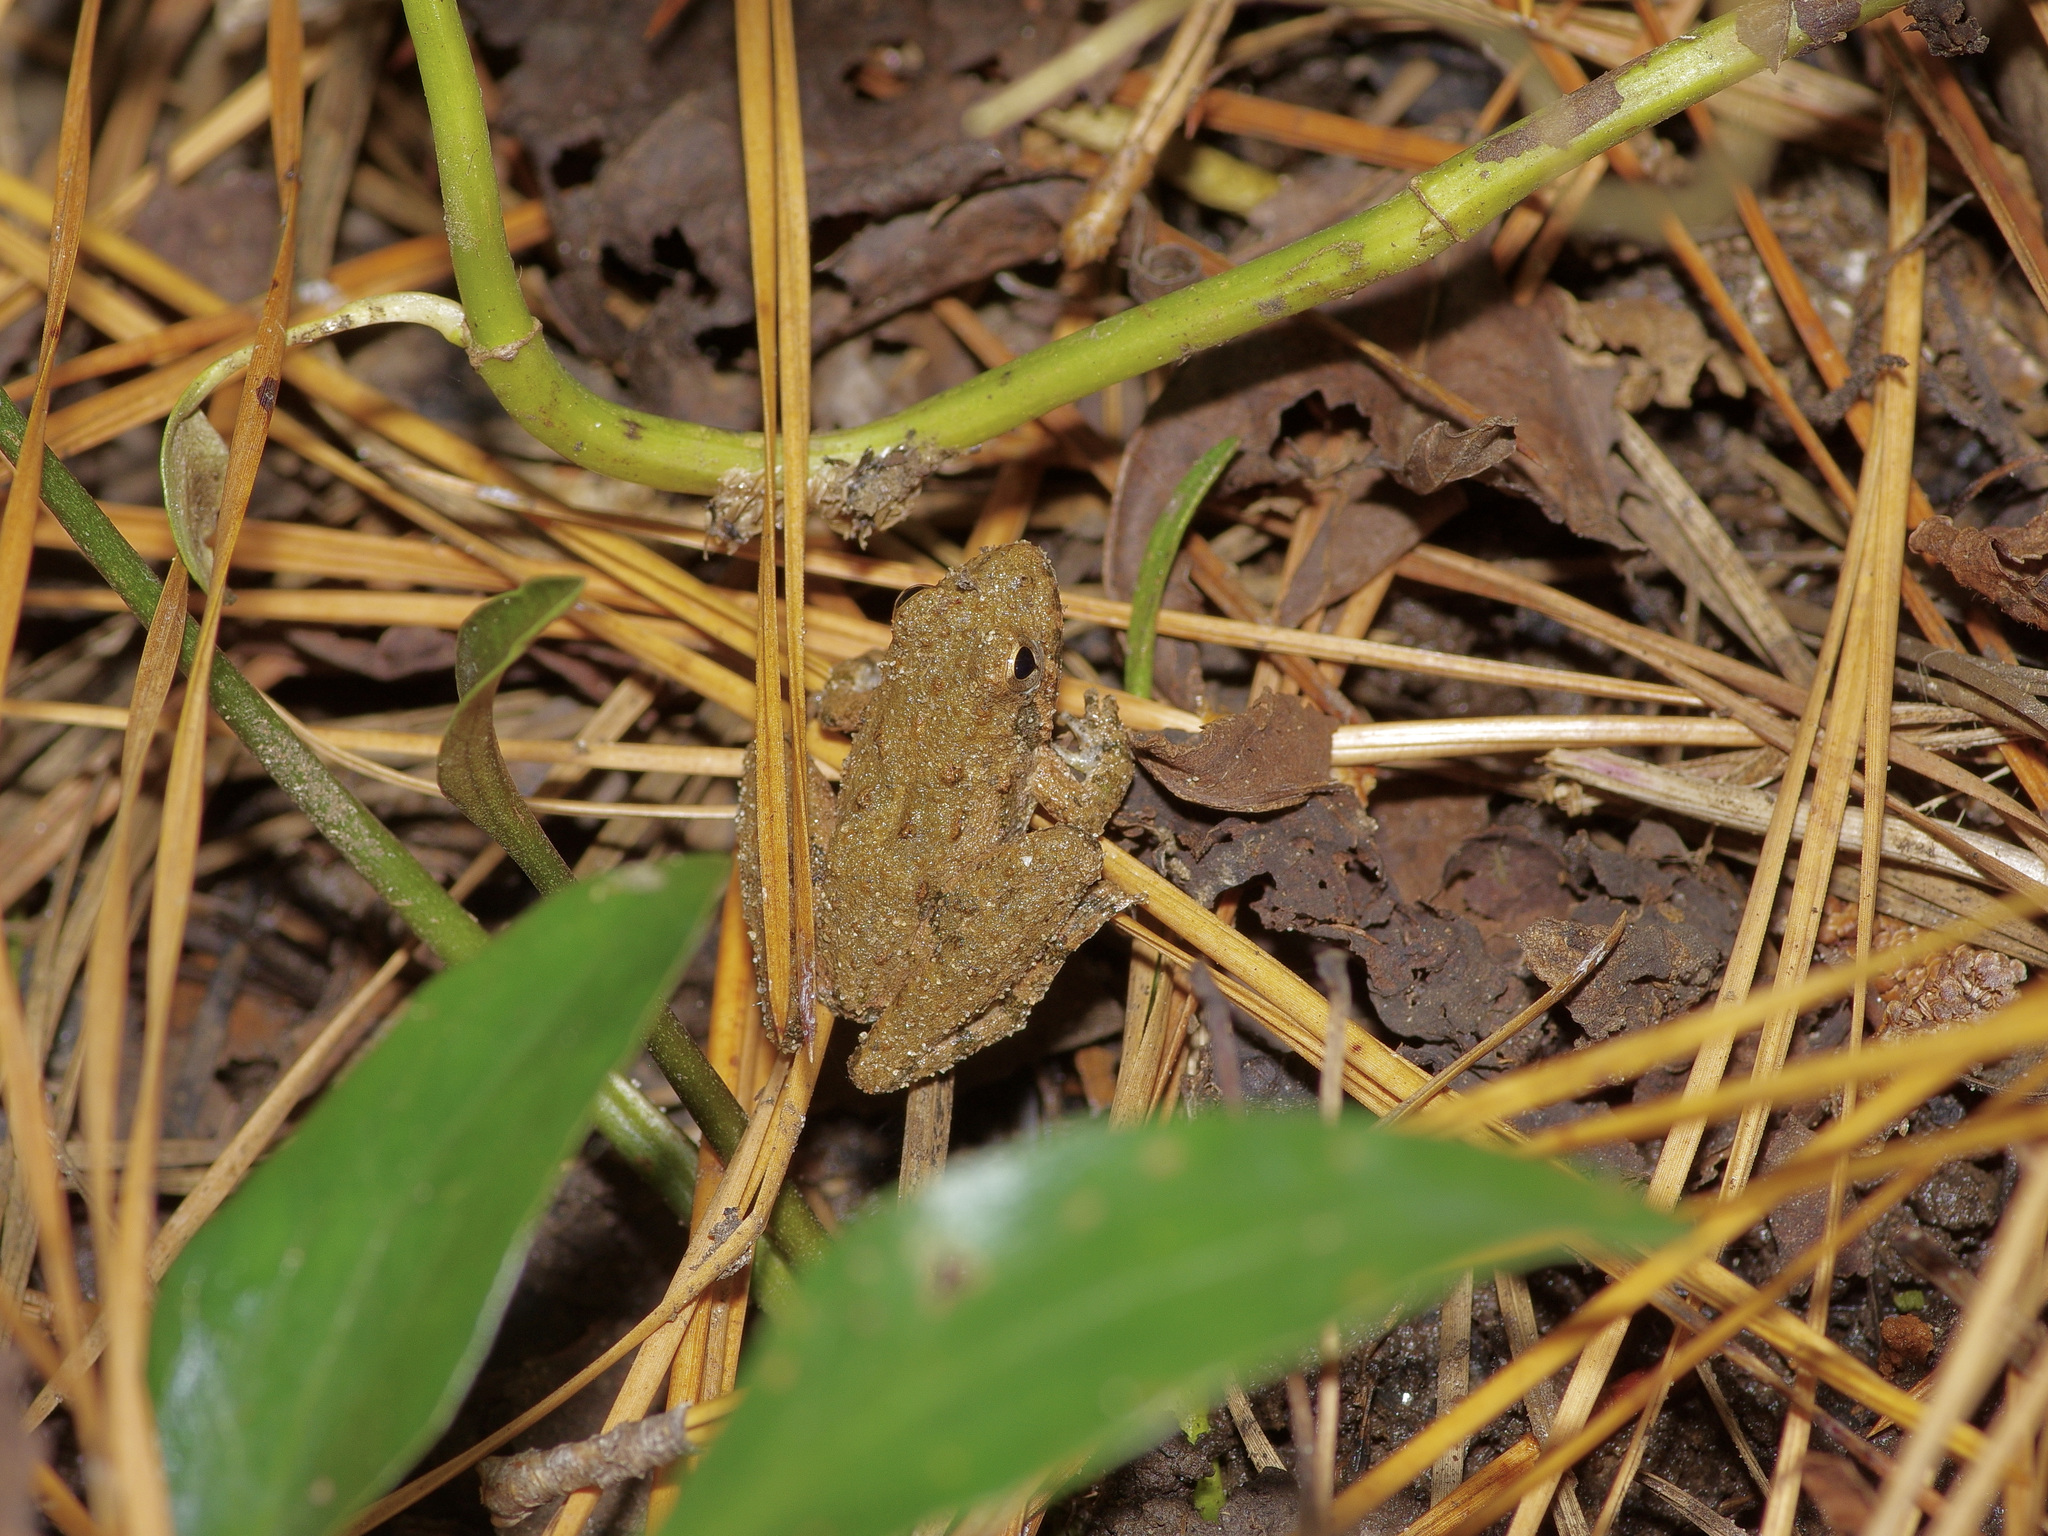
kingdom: Animalia
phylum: Chordata
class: Amphibia
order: Anura
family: Hylidae
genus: Acris
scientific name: Acris blanchardi
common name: Blanchard's cricket frog
